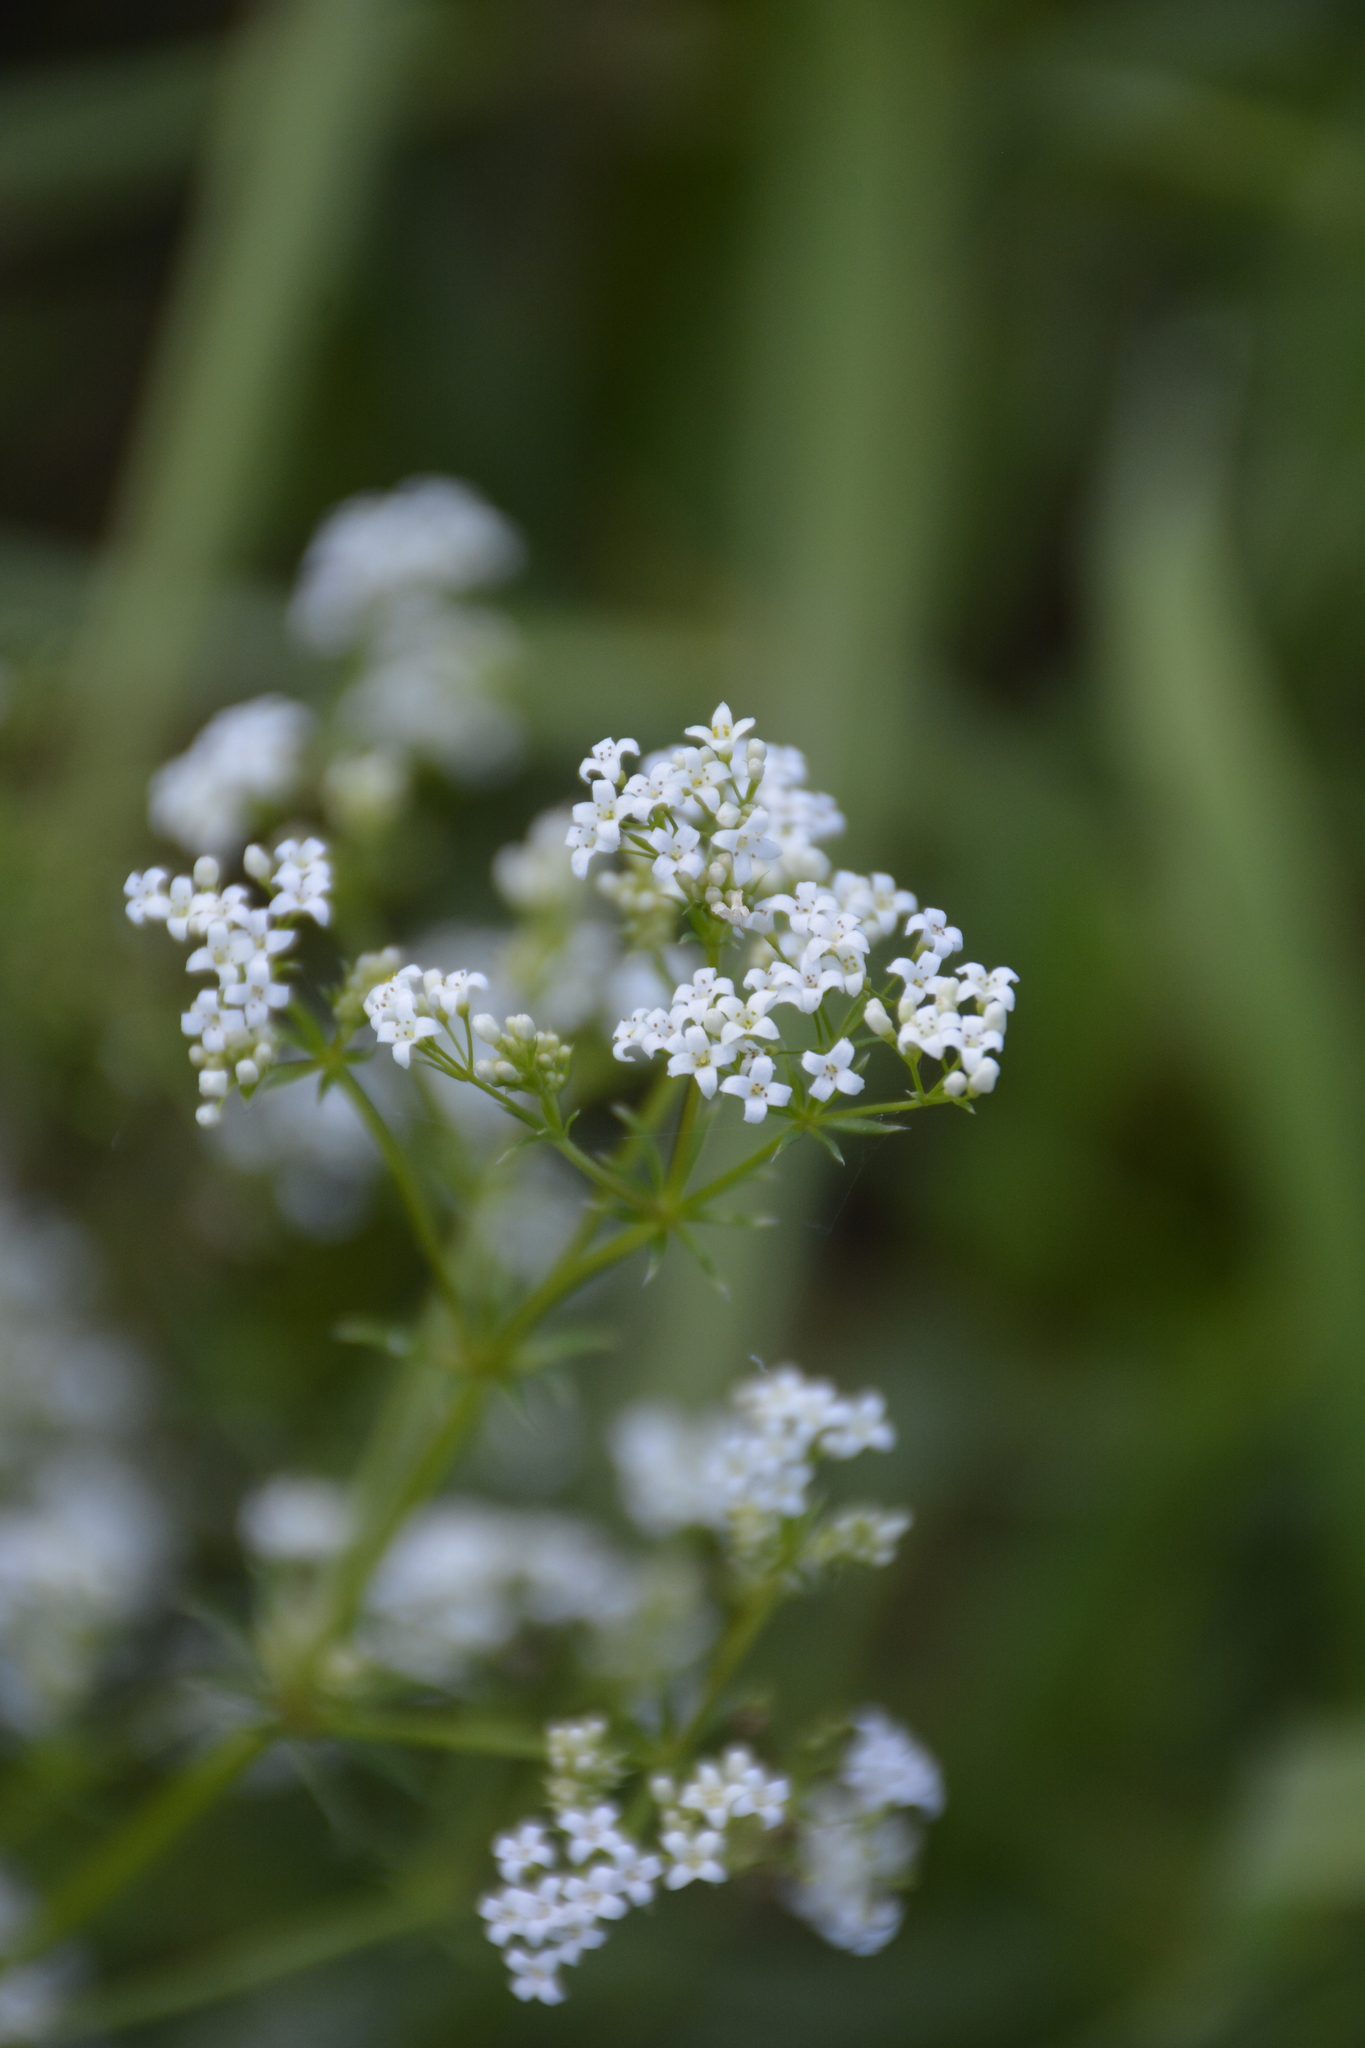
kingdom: Plantae
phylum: Tracheophyta
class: Magnoliopsida
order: Gentianales
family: Rubiaceae
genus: Galium
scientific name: Galium rivale
